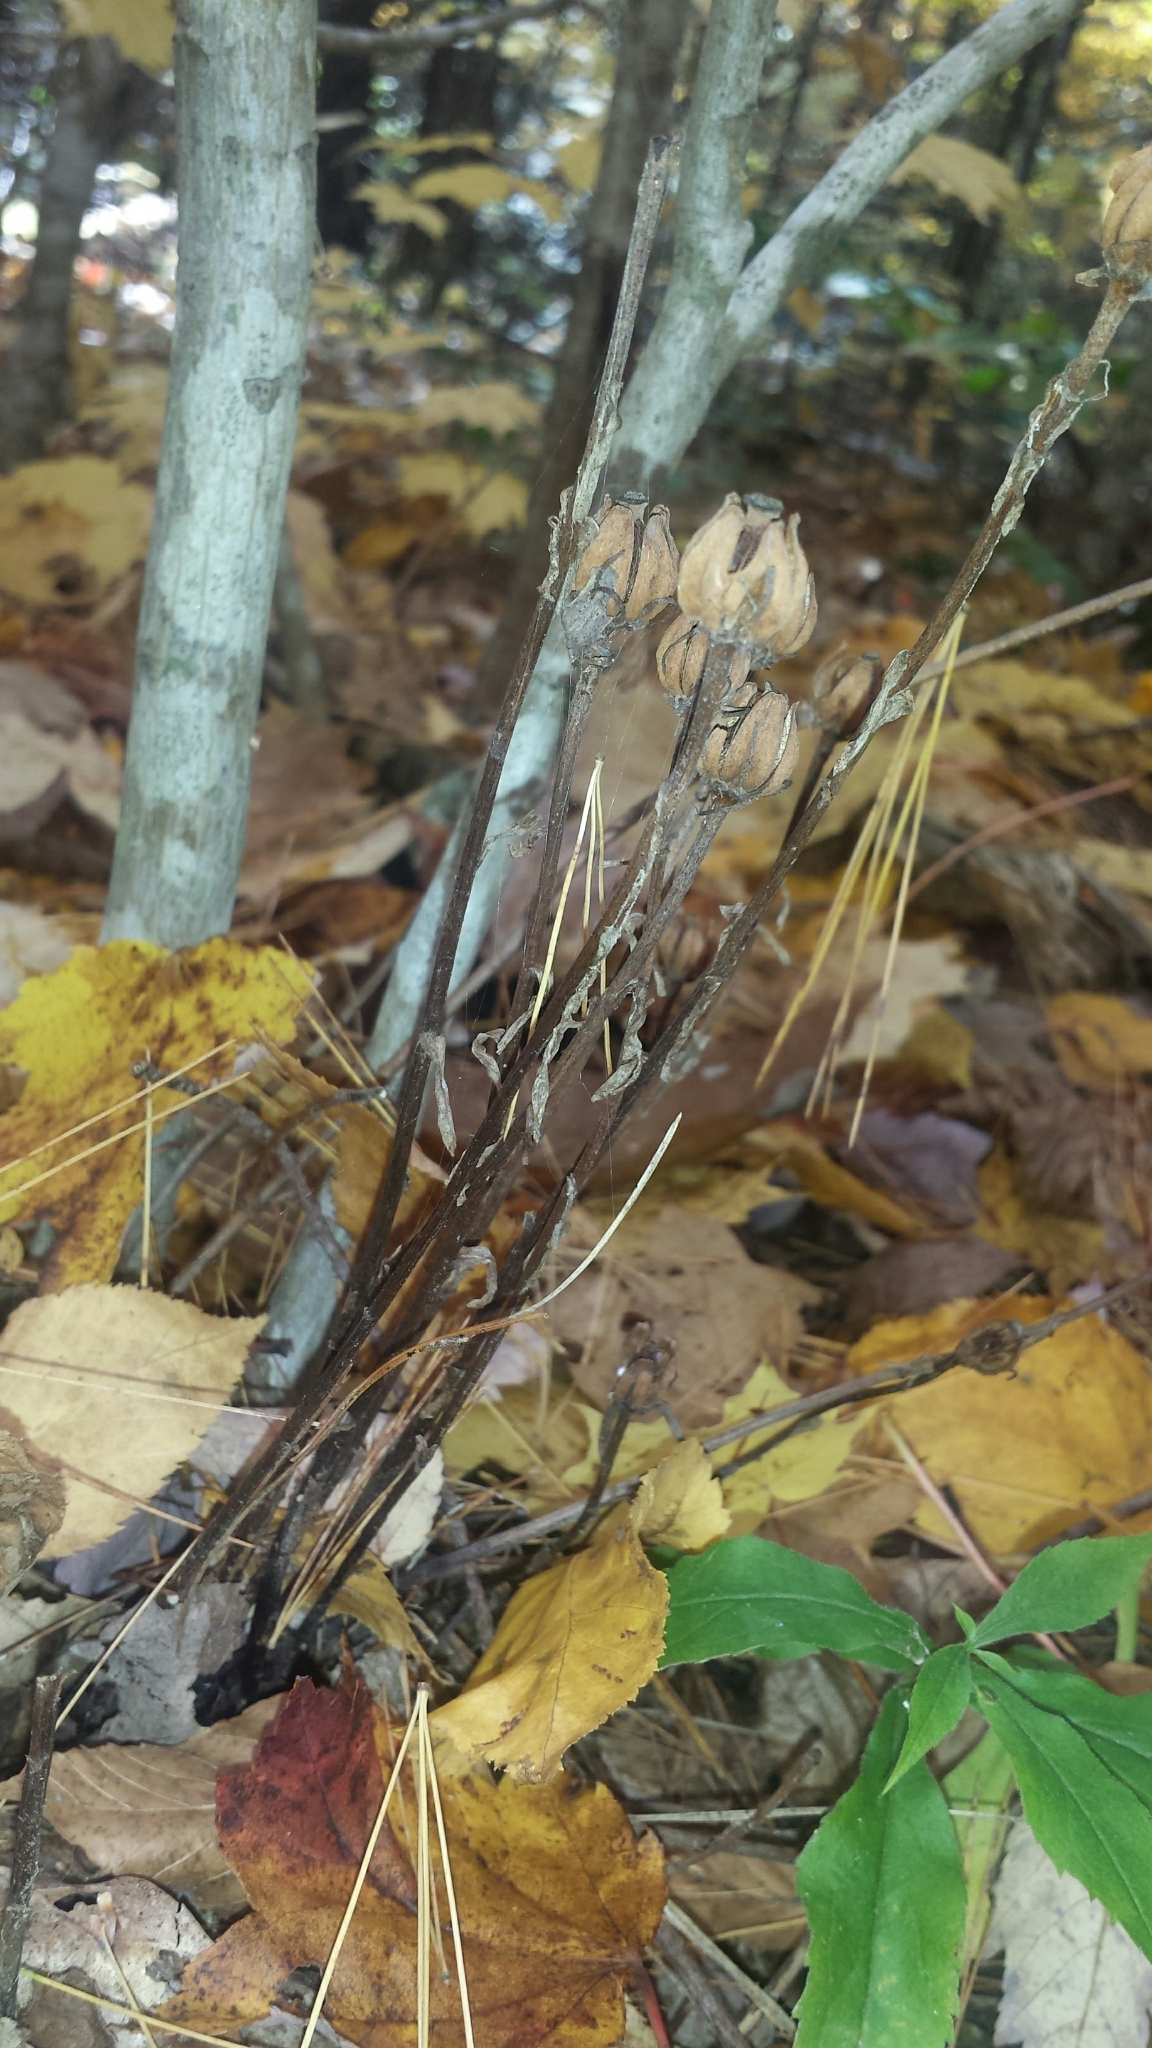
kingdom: Plantae
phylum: Tracheophyta
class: Magnoliopsida
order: Ericales
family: Ericaceae
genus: Monotropa
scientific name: Monotropa uniflora
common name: Convulsion root
